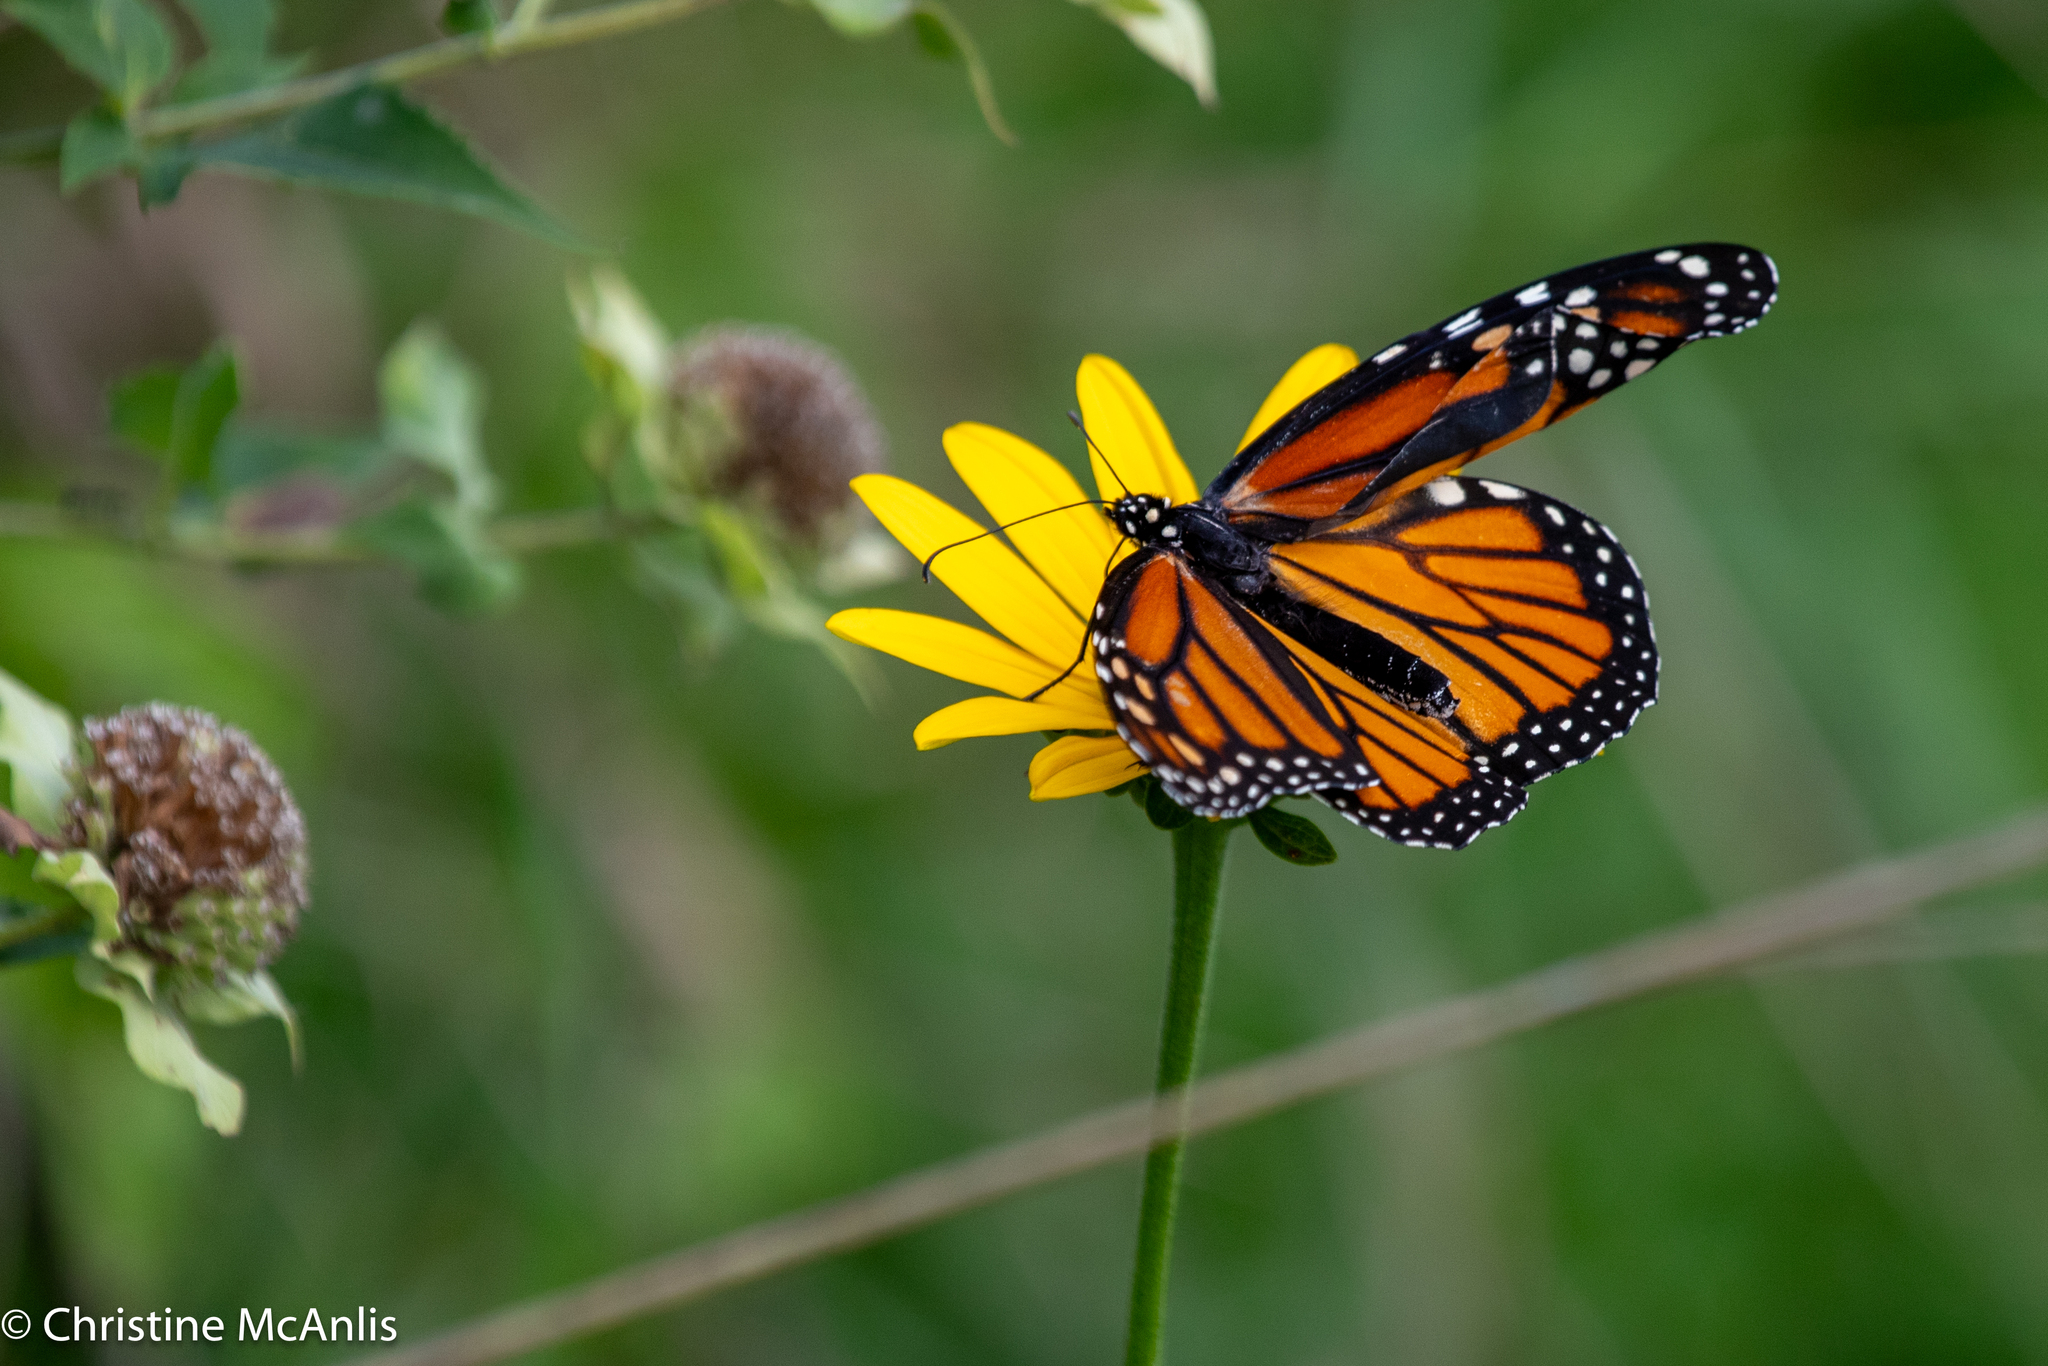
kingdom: Animalia
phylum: Arthropoda
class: Insecta
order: Lepidoptera
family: Nymphalidae
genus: Danaus
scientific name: Danaus plexippus
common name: Monarch
